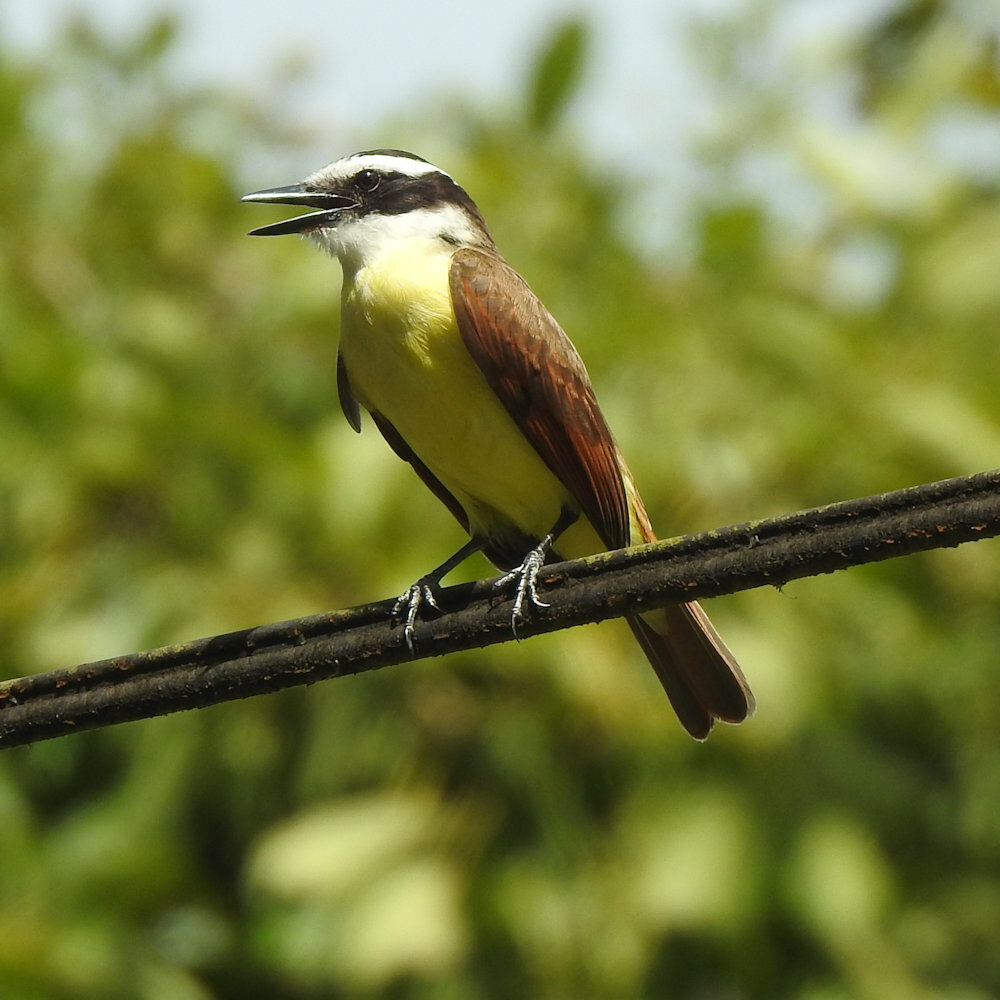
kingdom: Animalia
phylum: Chordata
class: Aves
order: Passeriformes
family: Tyrannidae
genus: Pitangus
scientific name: Pitangus sulphuratus
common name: Great kiskadee
